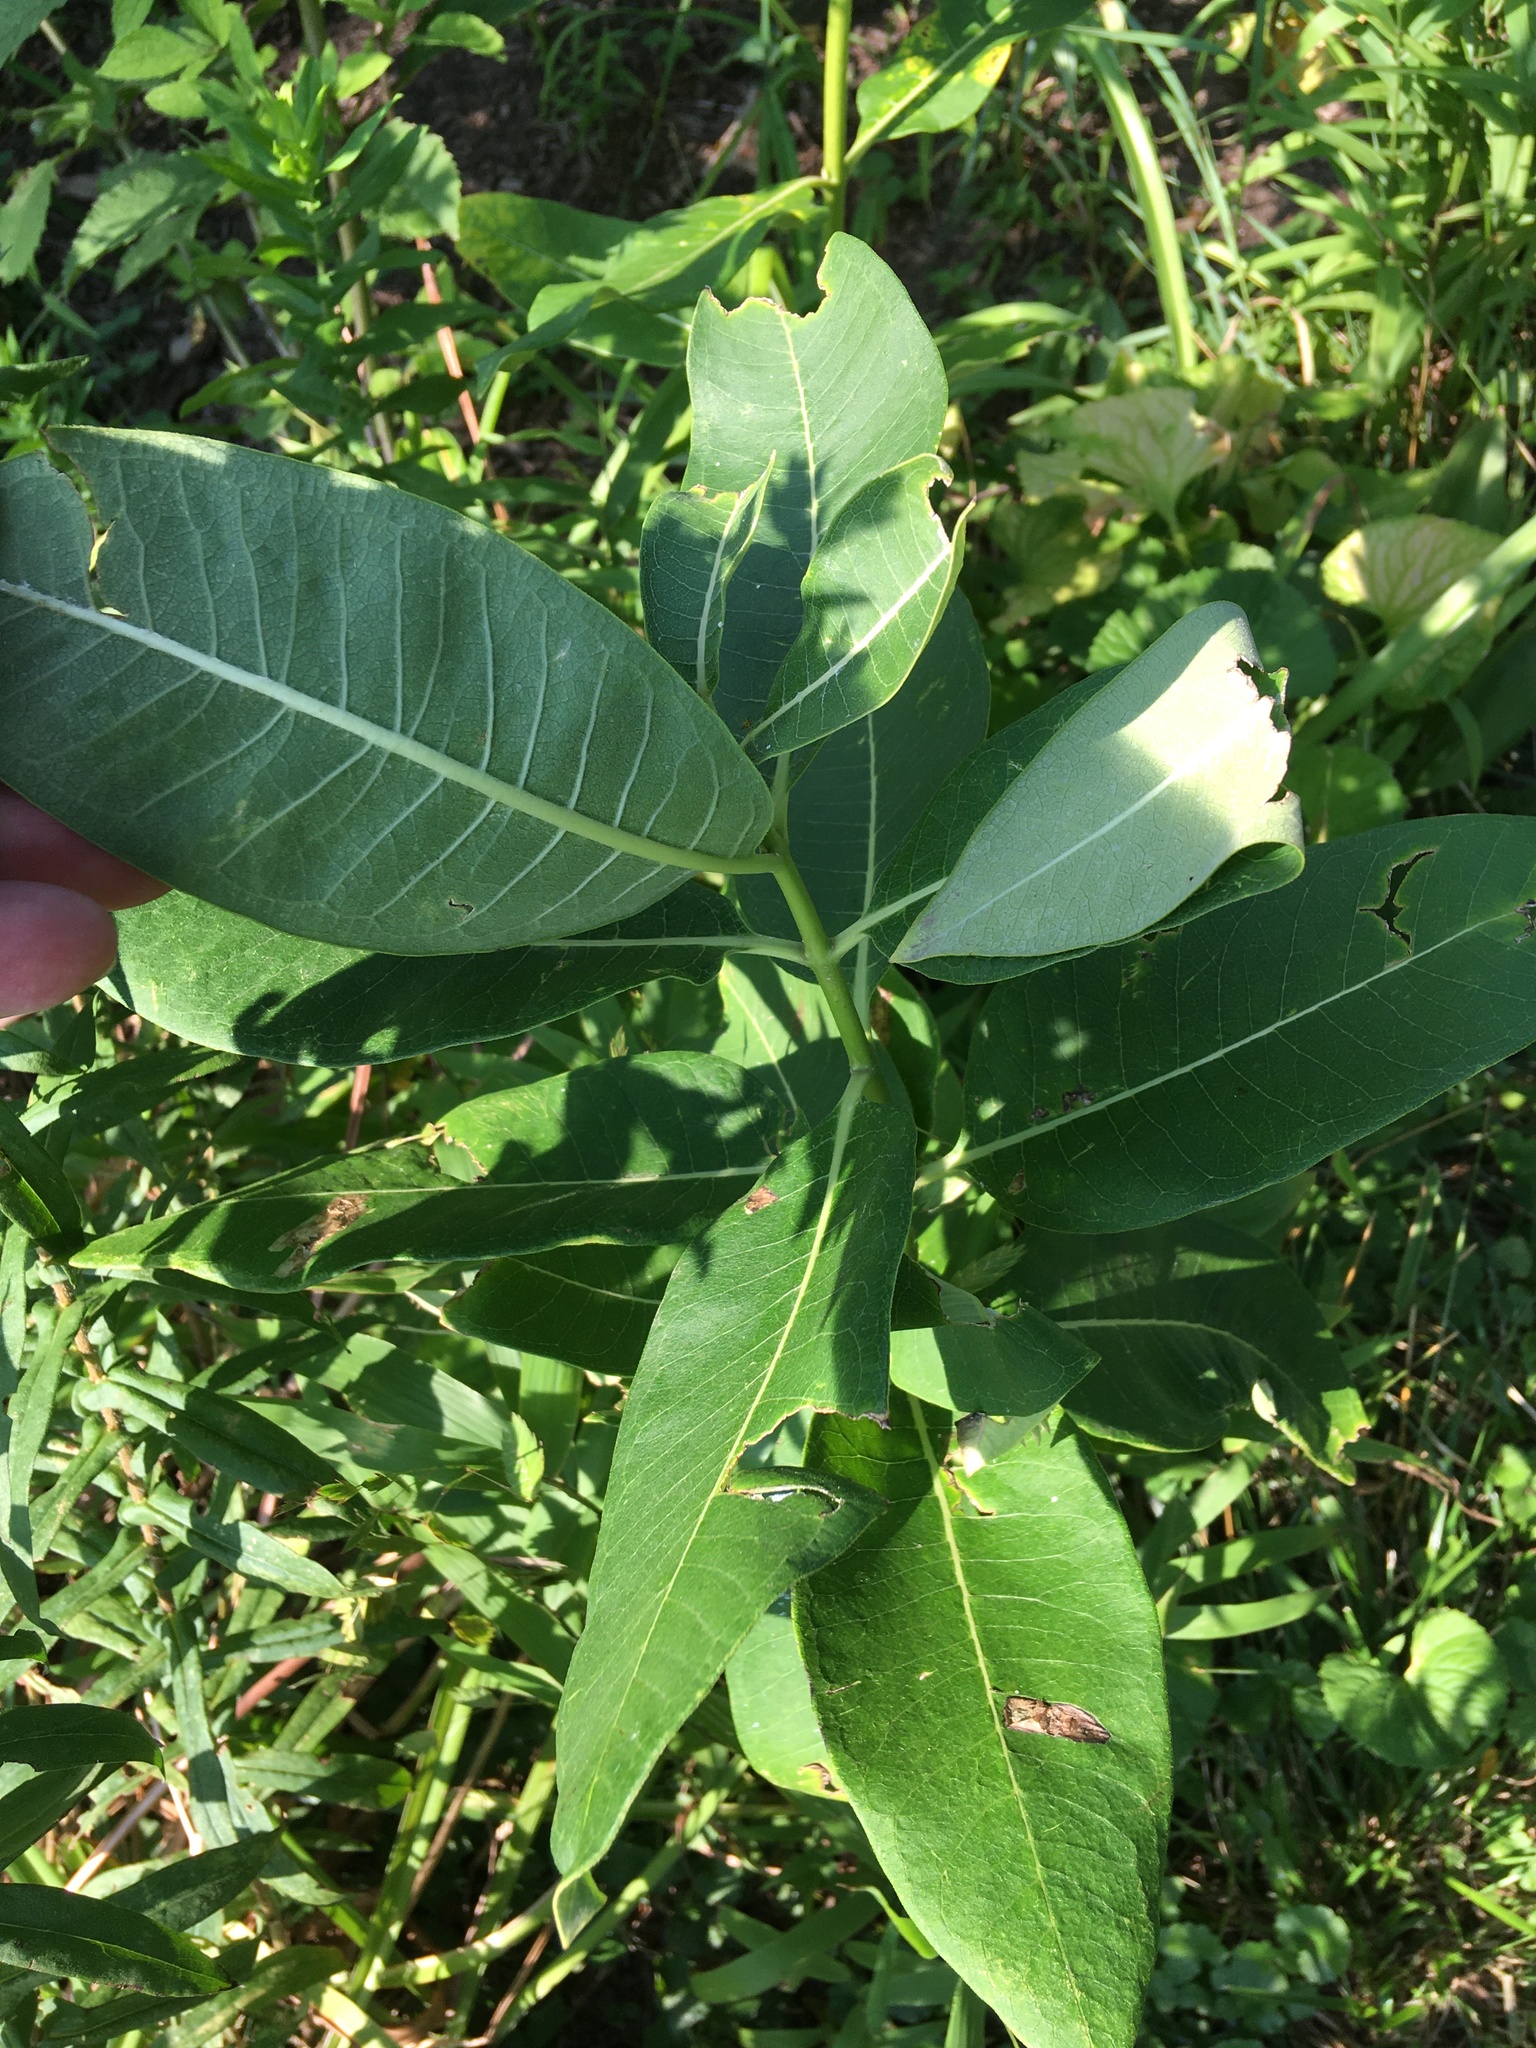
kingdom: Plantae
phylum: Tracheophyta
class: Magnoliopsida
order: Gentianales
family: Apocynaceae
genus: Asclepias
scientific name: Asclepias syriaca
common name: Common milkweed
